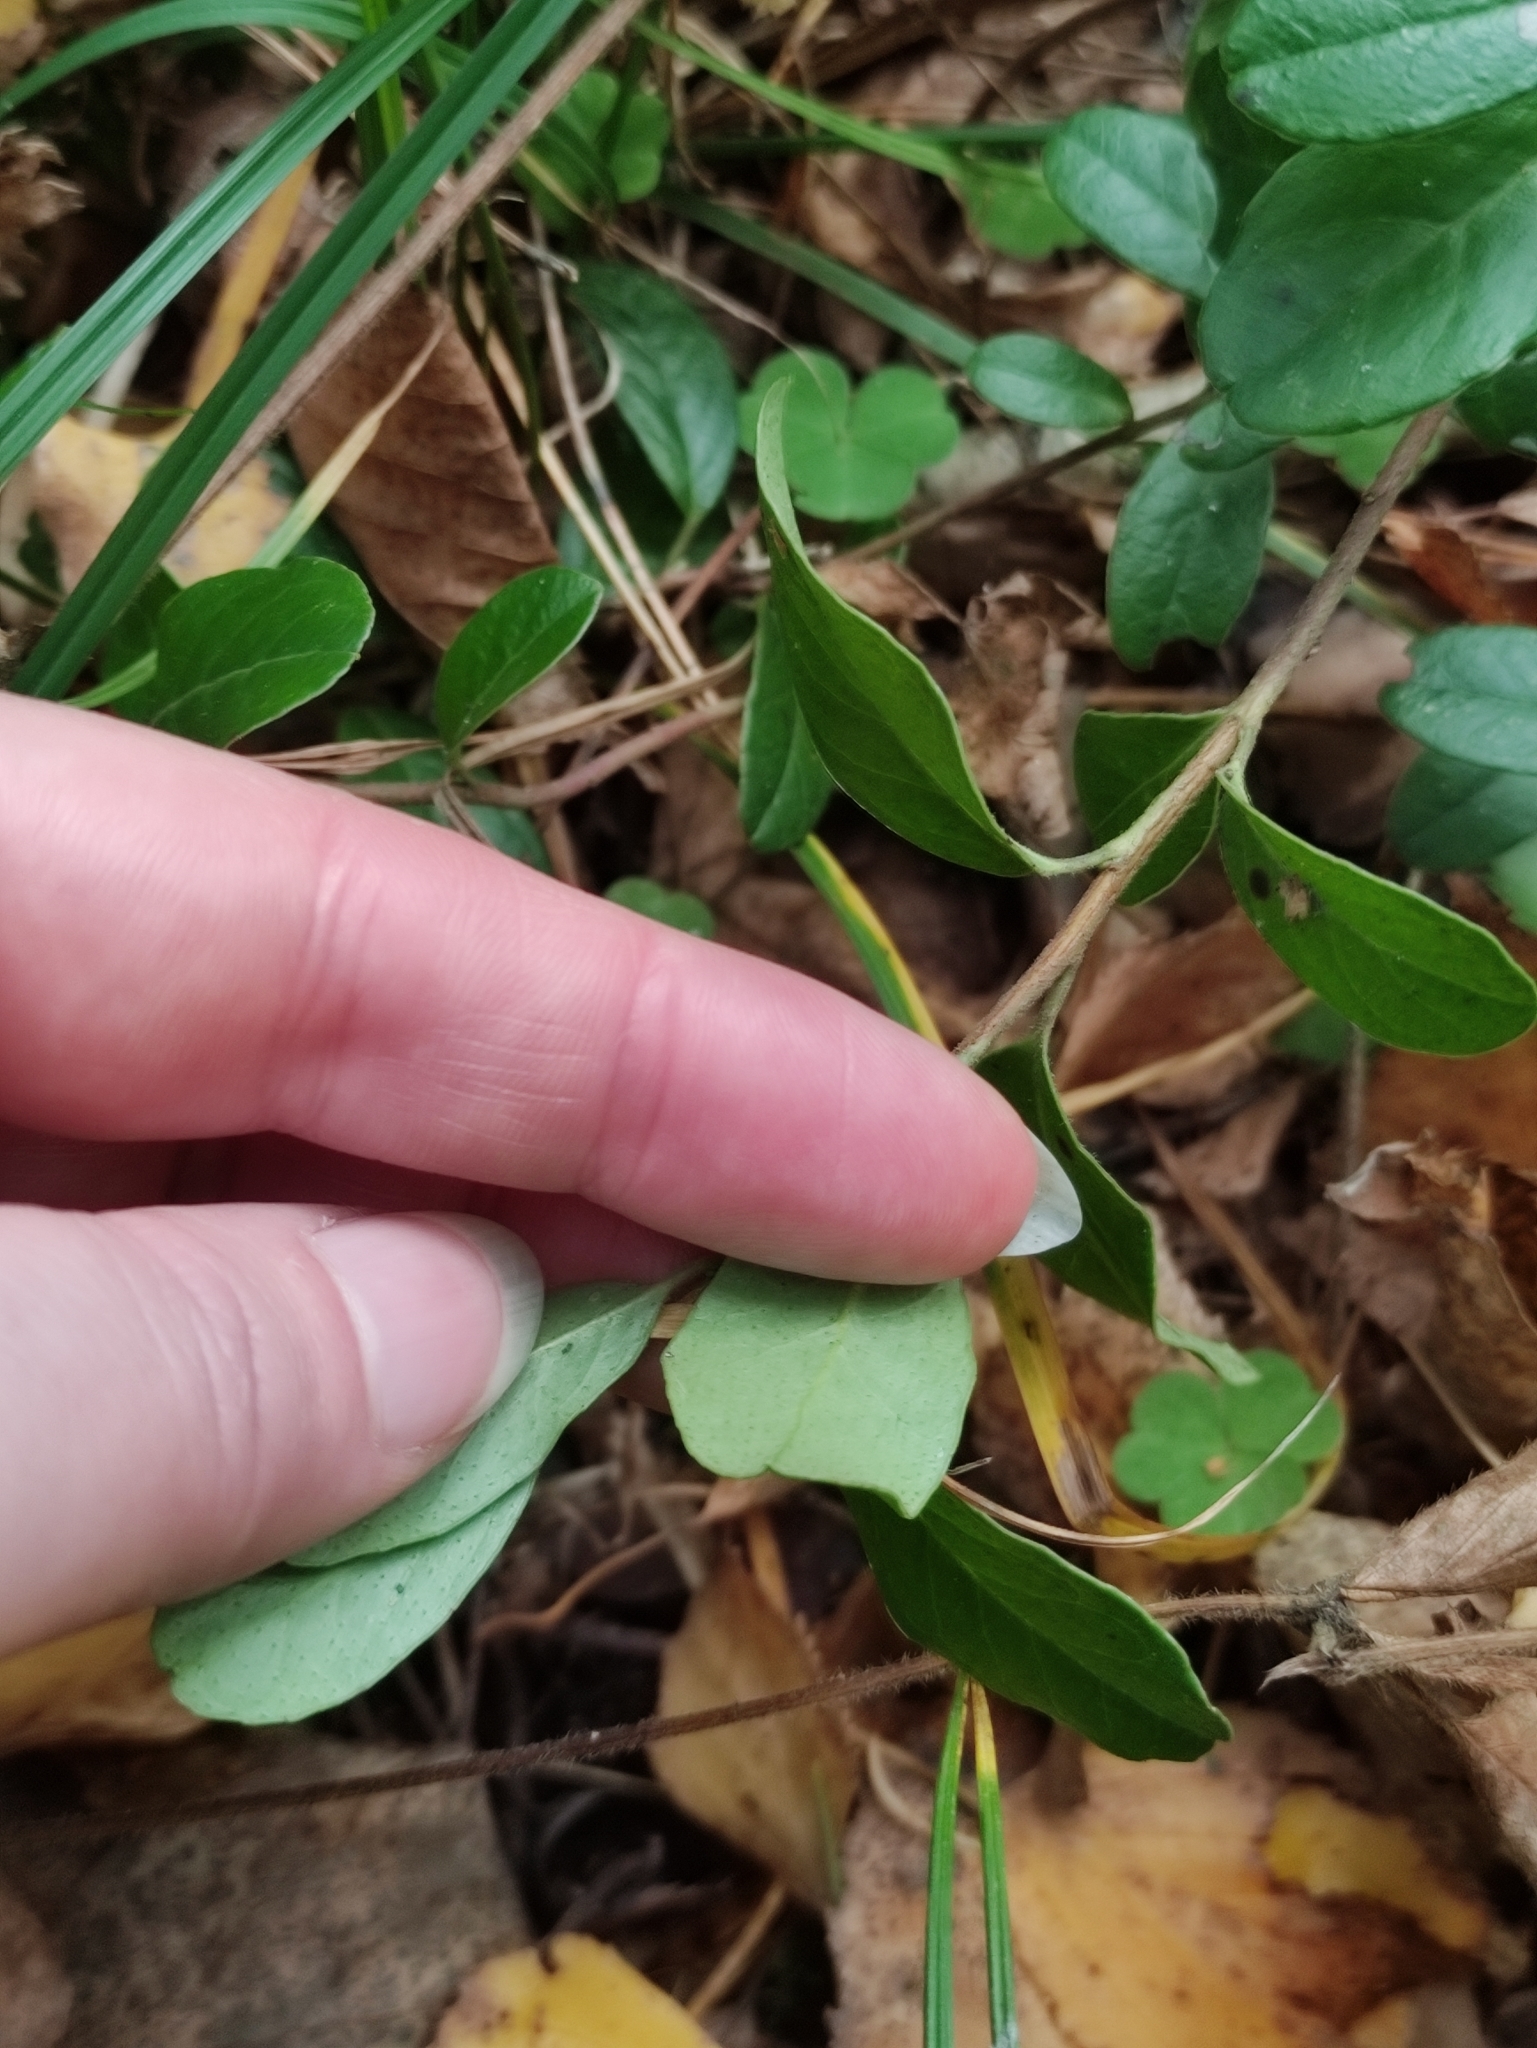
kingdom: Plantae
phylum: Tracheophyta
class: Magnoliopsida
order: Ericales
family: Ericaceae
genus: Vaccinium
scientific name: Vaccinium vitis-idaea
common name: Cowberry
